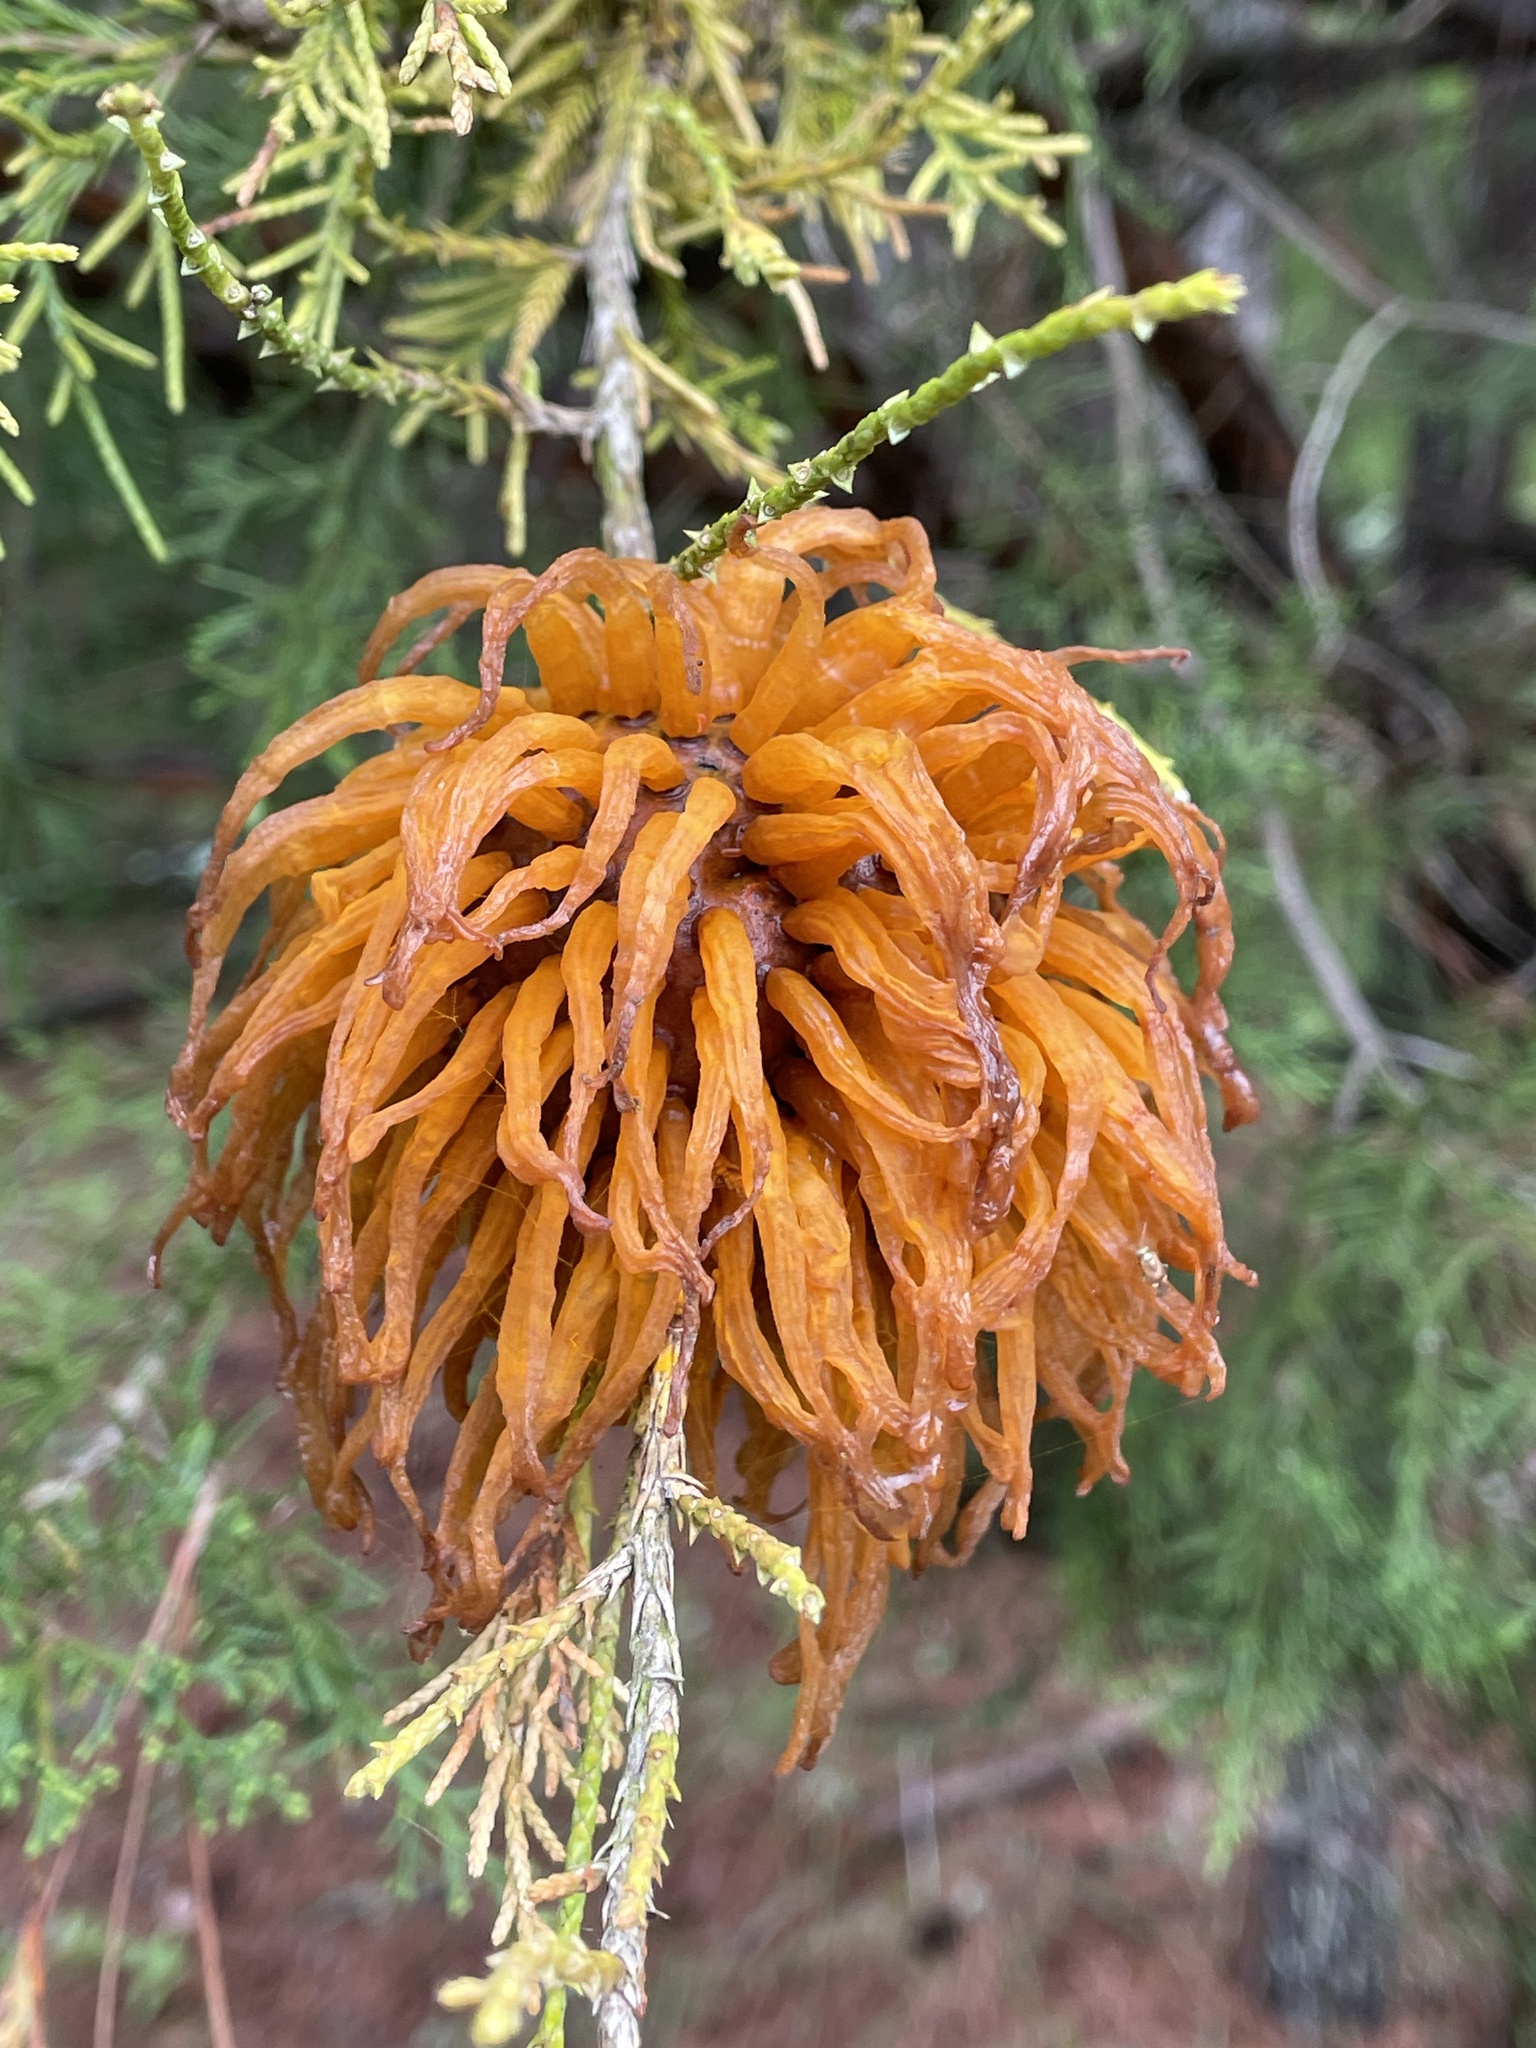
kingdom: Fungi
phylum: Basidiomycota
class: Pucciniomycetes
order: Pucciniales
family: Gymnosporangiaceae
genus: Gymnosporangium
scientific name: Gymnosporangium juniperi-virginianae
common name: Juniper-apple rust
